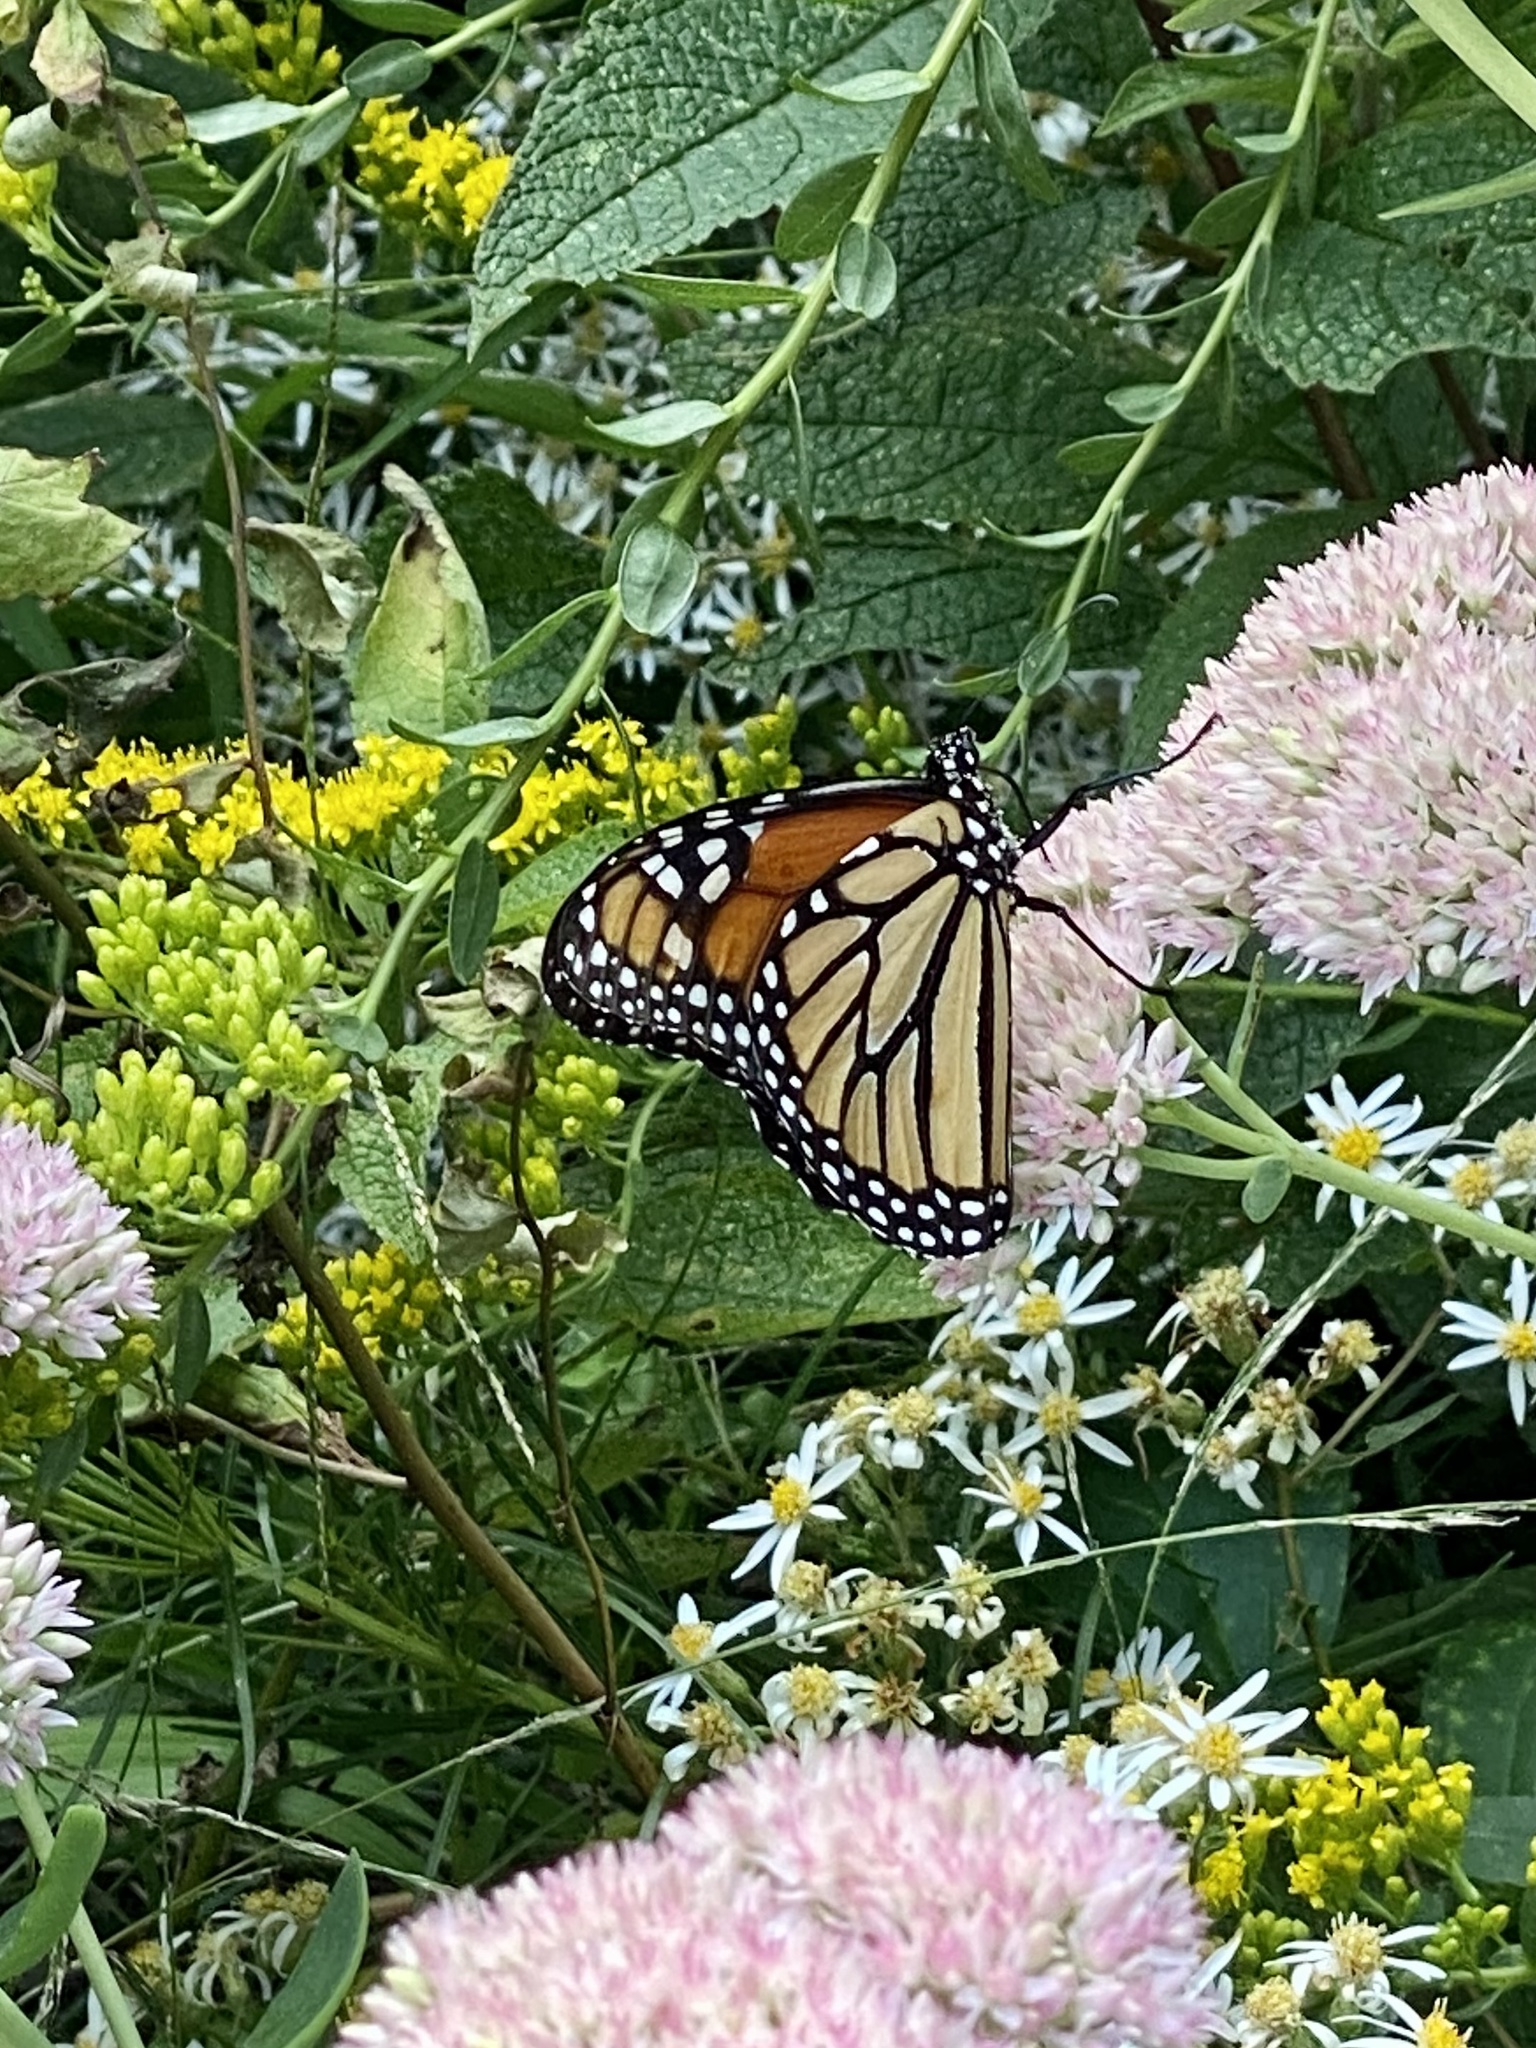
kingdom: Animalia
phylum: Arthropoda
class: Insecta
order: Lepidoptera
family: Nymphalidae
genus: Danaus
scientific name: Danaus plexippus
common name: Monarch
